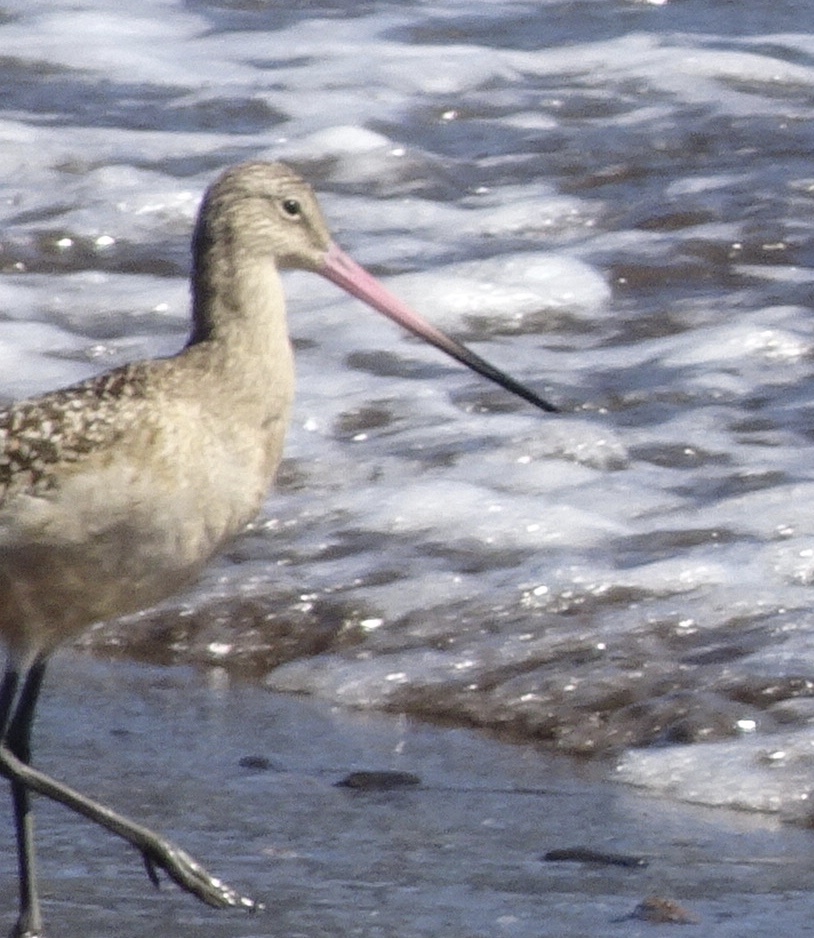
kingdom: Animalia
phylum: Chordata
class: Aves
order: Charadriiformes
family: Scolopacidae
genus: Limosa
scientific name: Limosa fedoa
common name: Marbled godwit
